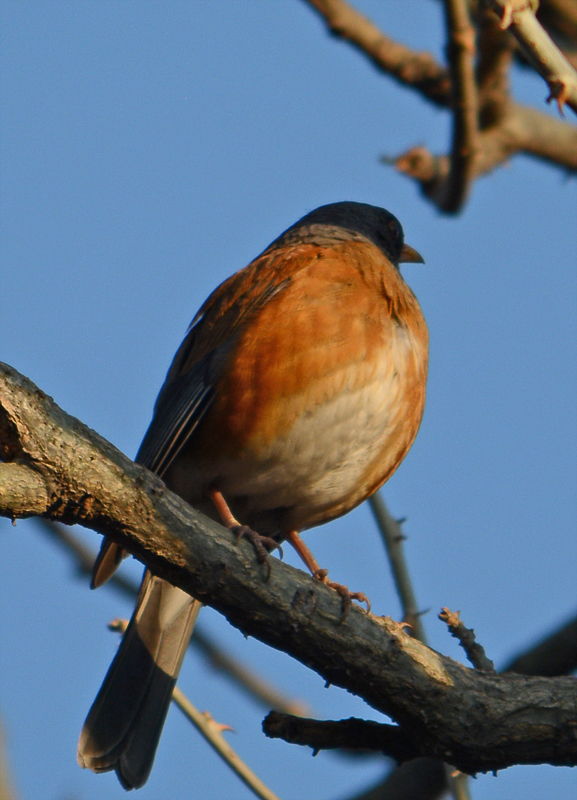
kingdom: Animalia
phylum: Chordata
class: Aves
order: Passeriformes
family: Turdidae
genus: Turdus
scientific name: Turdus rufopalliatus
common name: Rufous-backed robin
